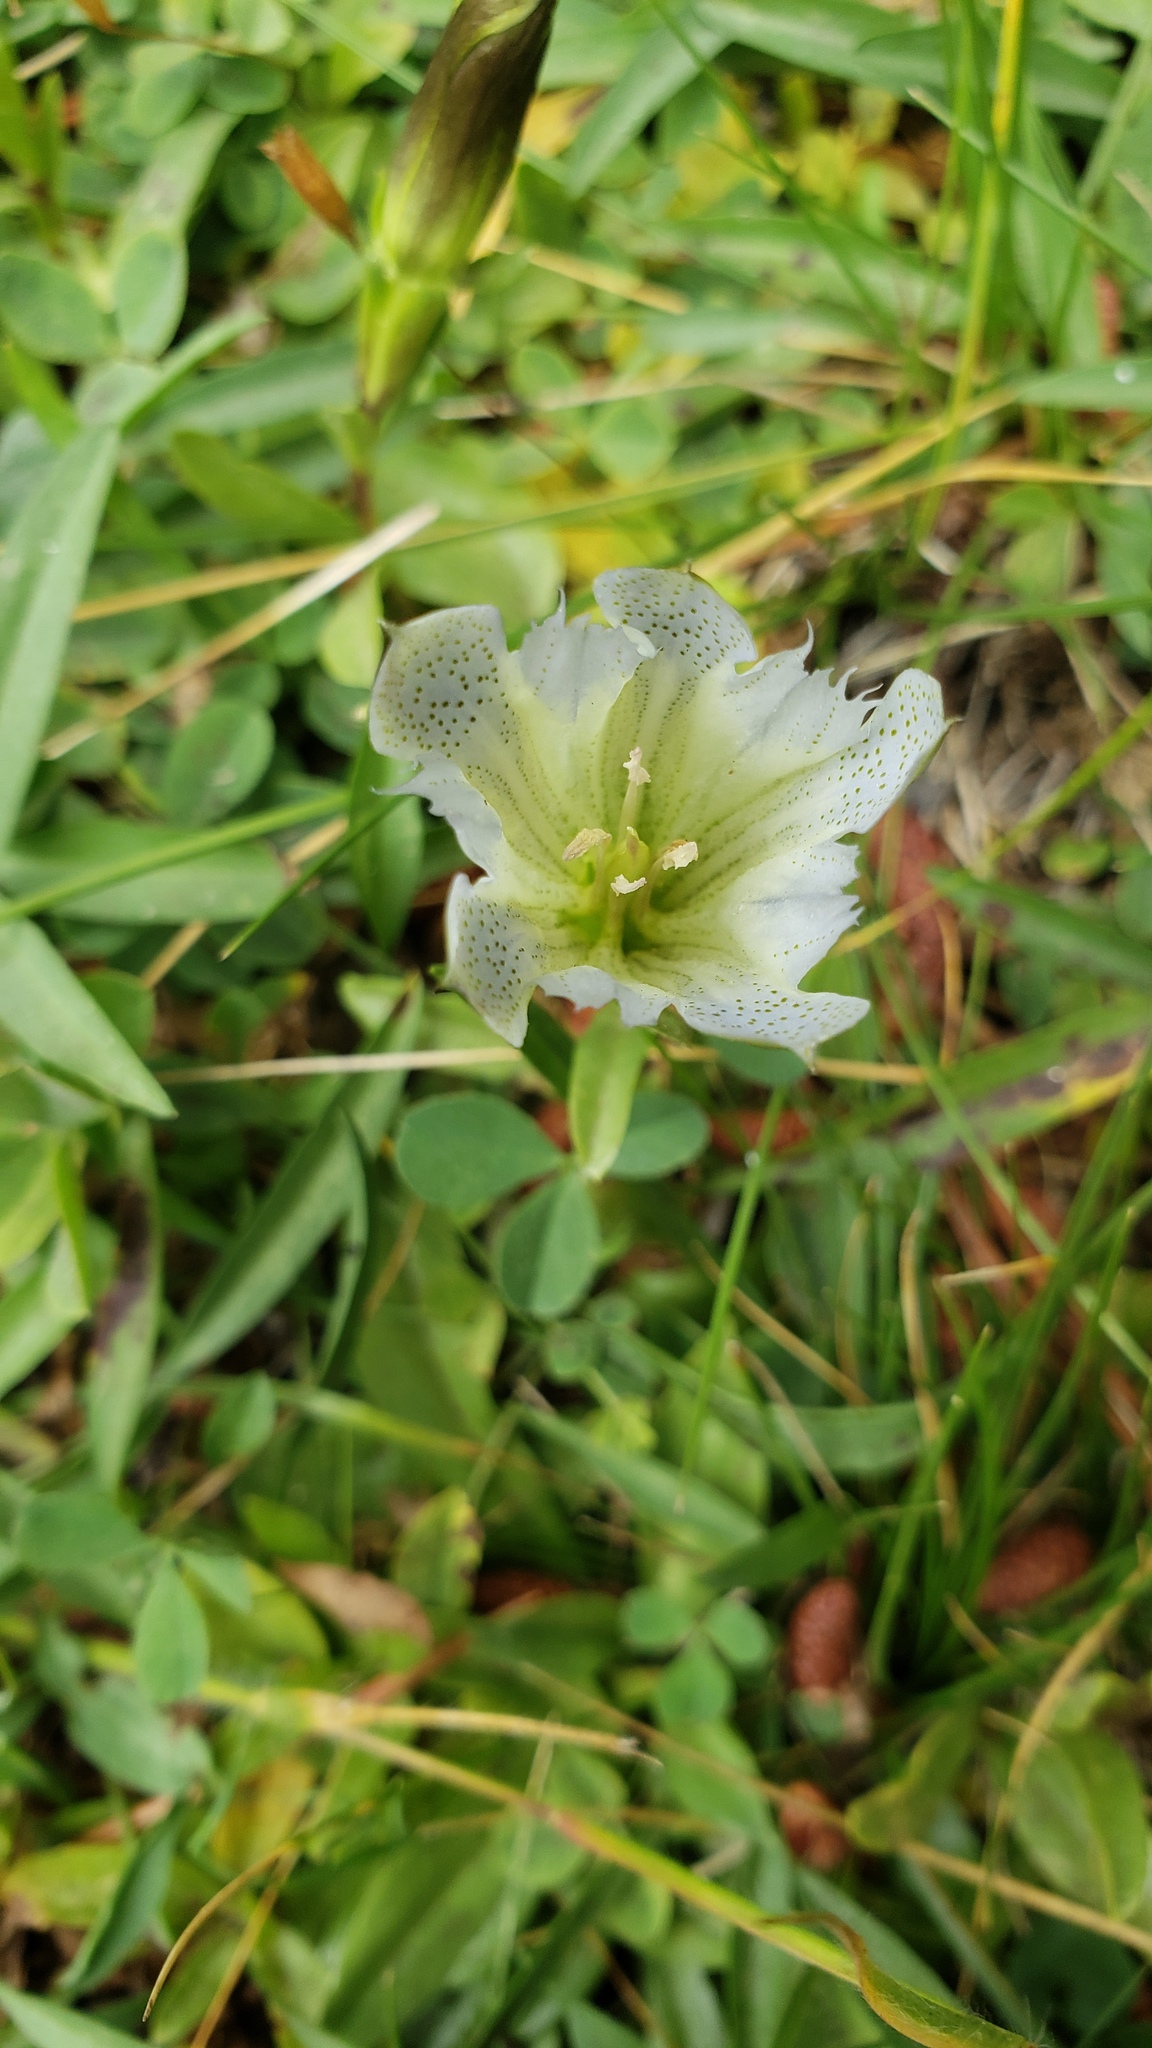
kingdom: Plantae
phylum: Tracheophyta
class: Magnoliopsida
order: Gentianales
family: Gentianaceae
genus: Gentiana
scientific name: Gentiana newberryi
